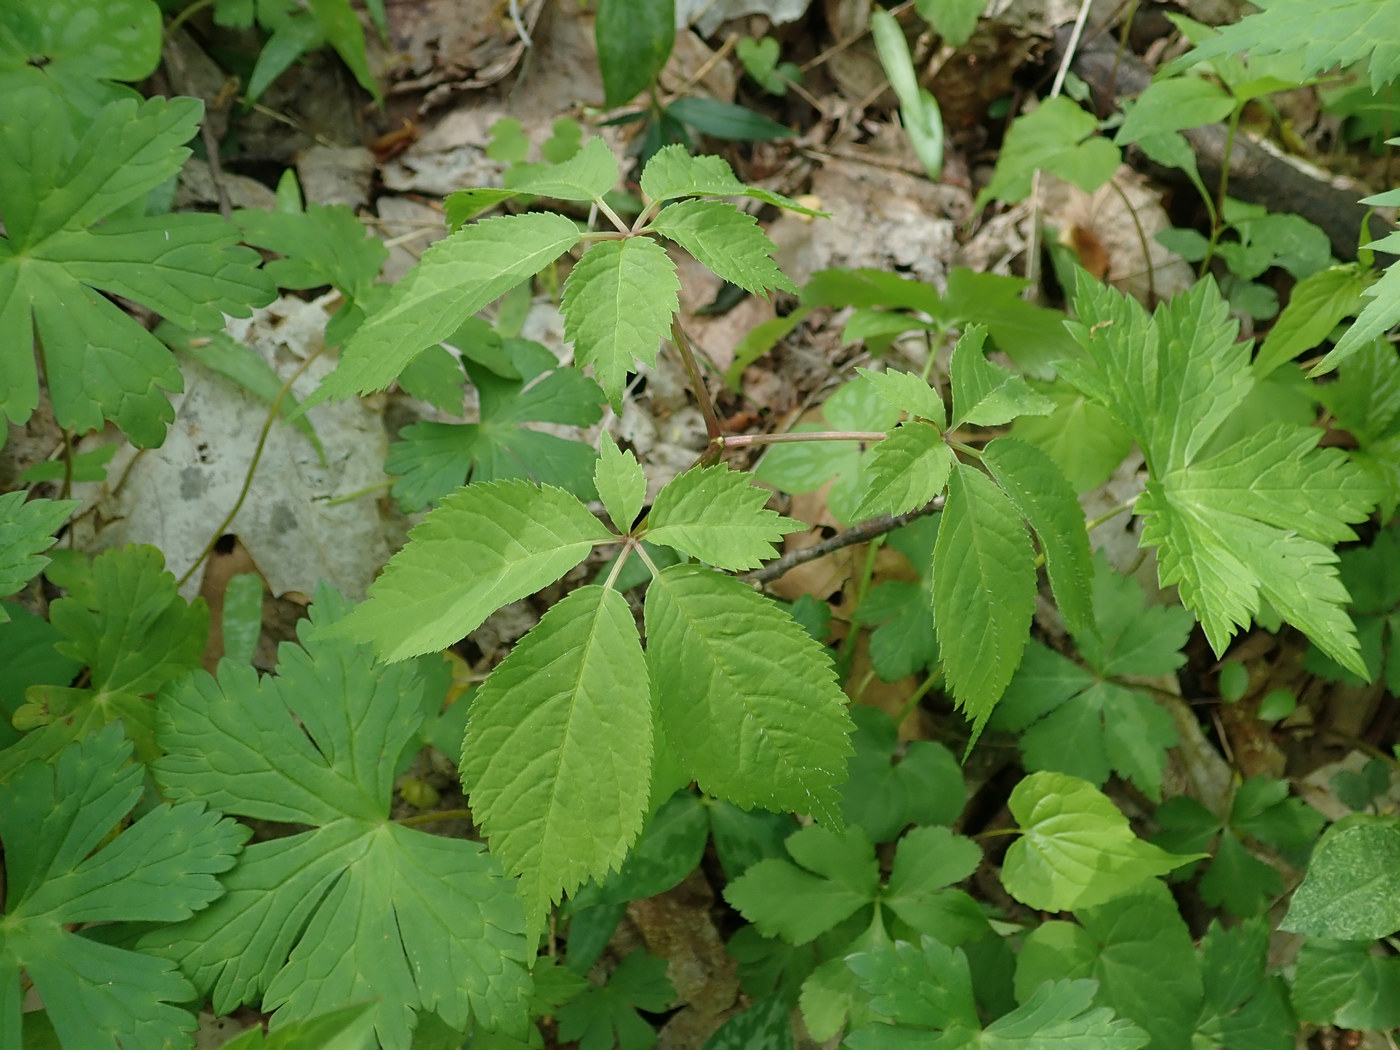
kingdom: Plantae
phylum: Tracheophyta
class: Magnoliopsida
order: Apiales
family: Araliaceae
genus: Panax
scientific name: Panax quinquefolius
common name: American ginseng
